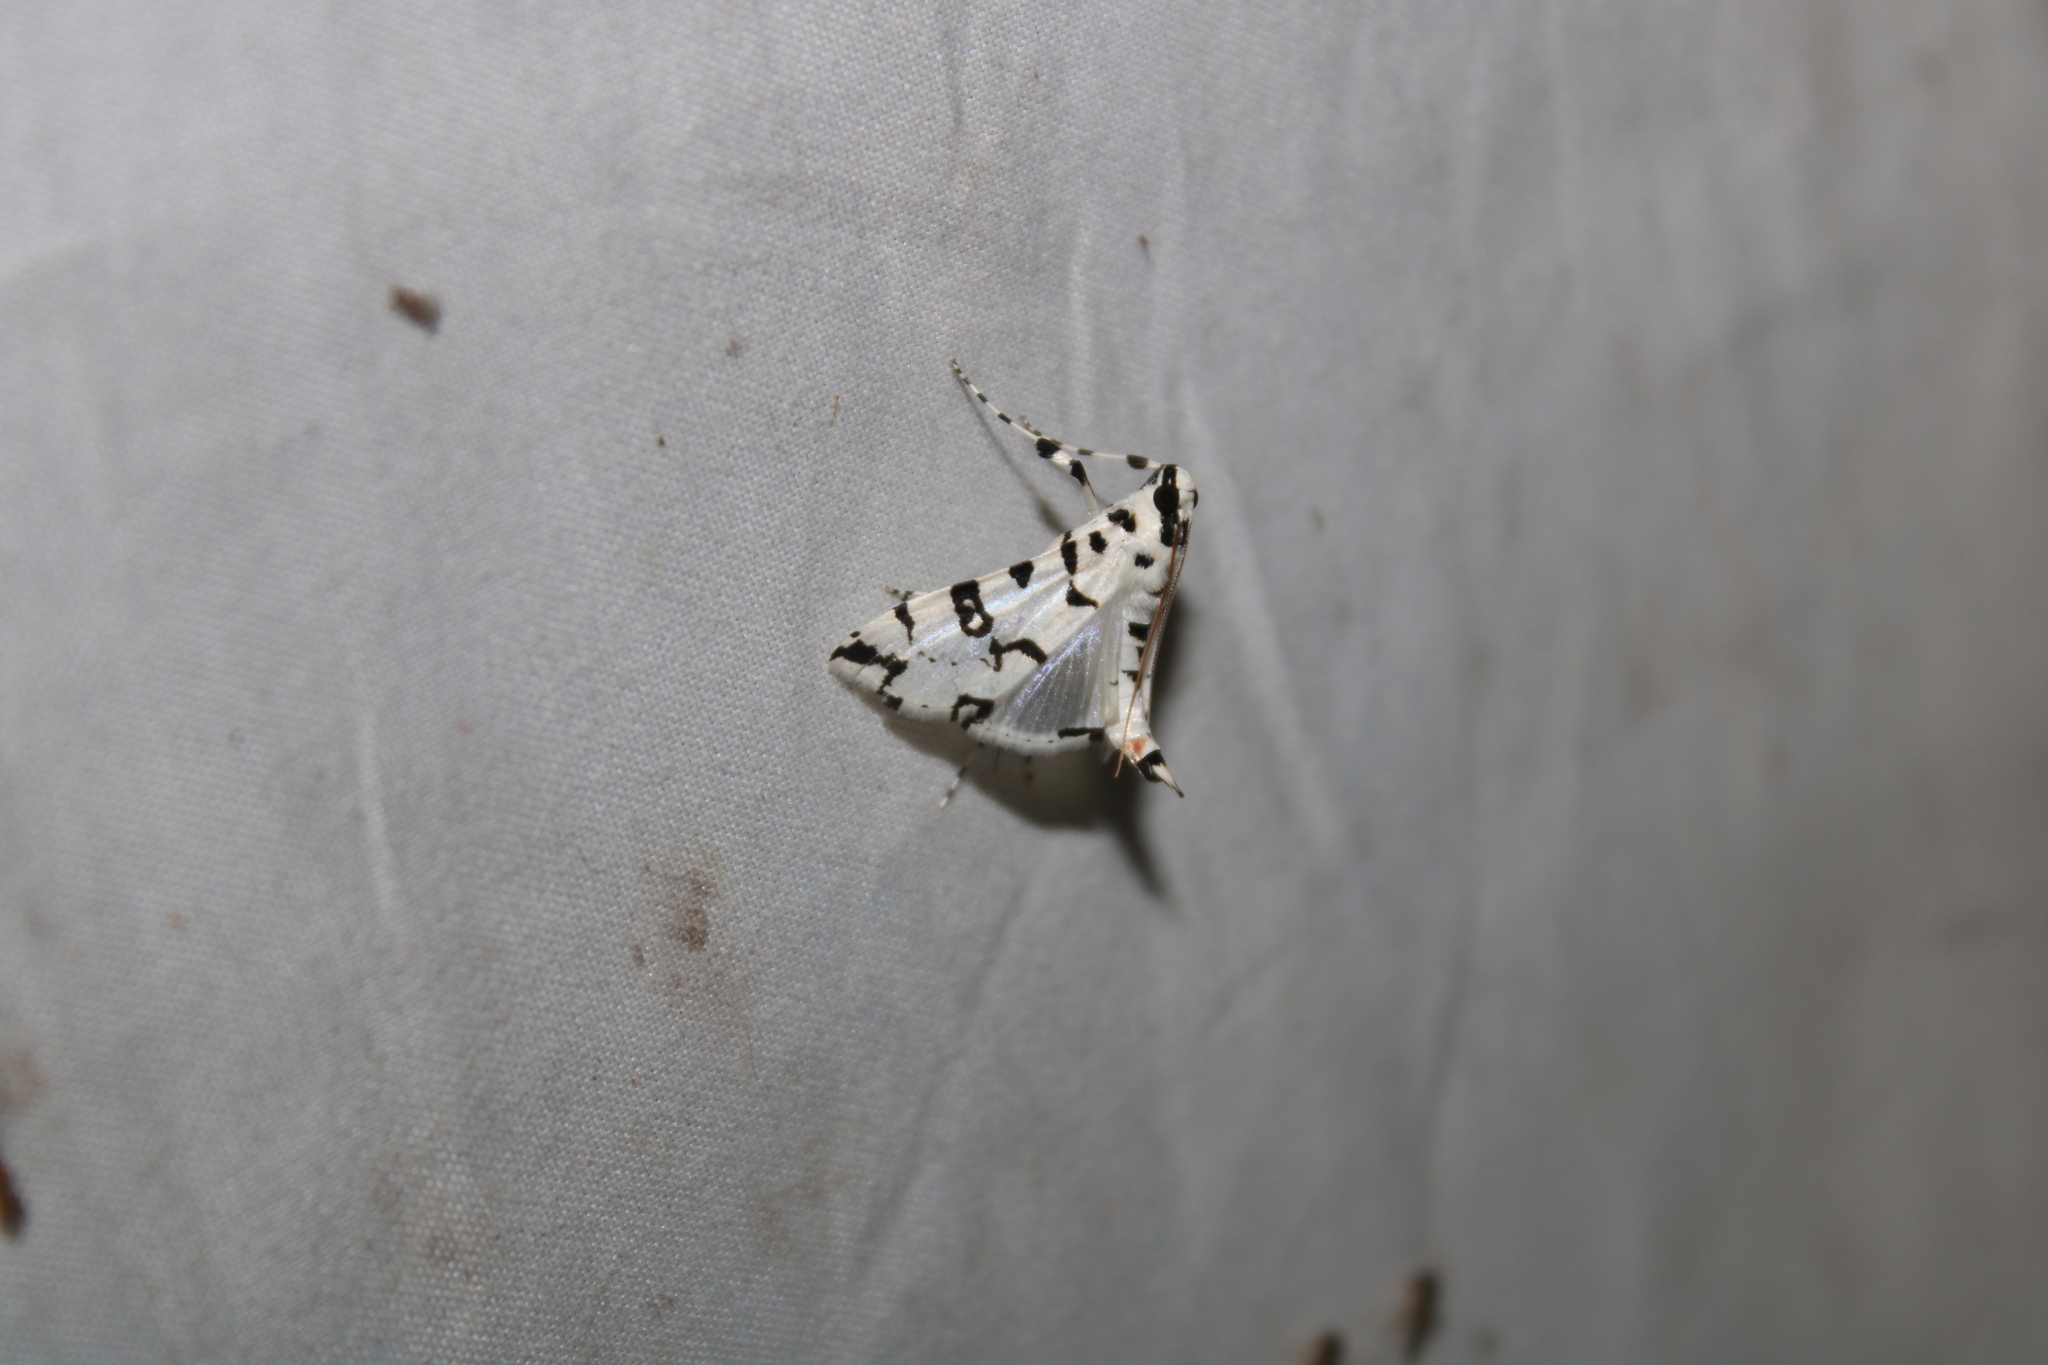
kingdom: Animalia
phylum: Arthropoda
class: Insecta
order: Lepidoptera
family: Crambidae
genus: Conchylodes
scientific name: Conchylodes diphteralis
